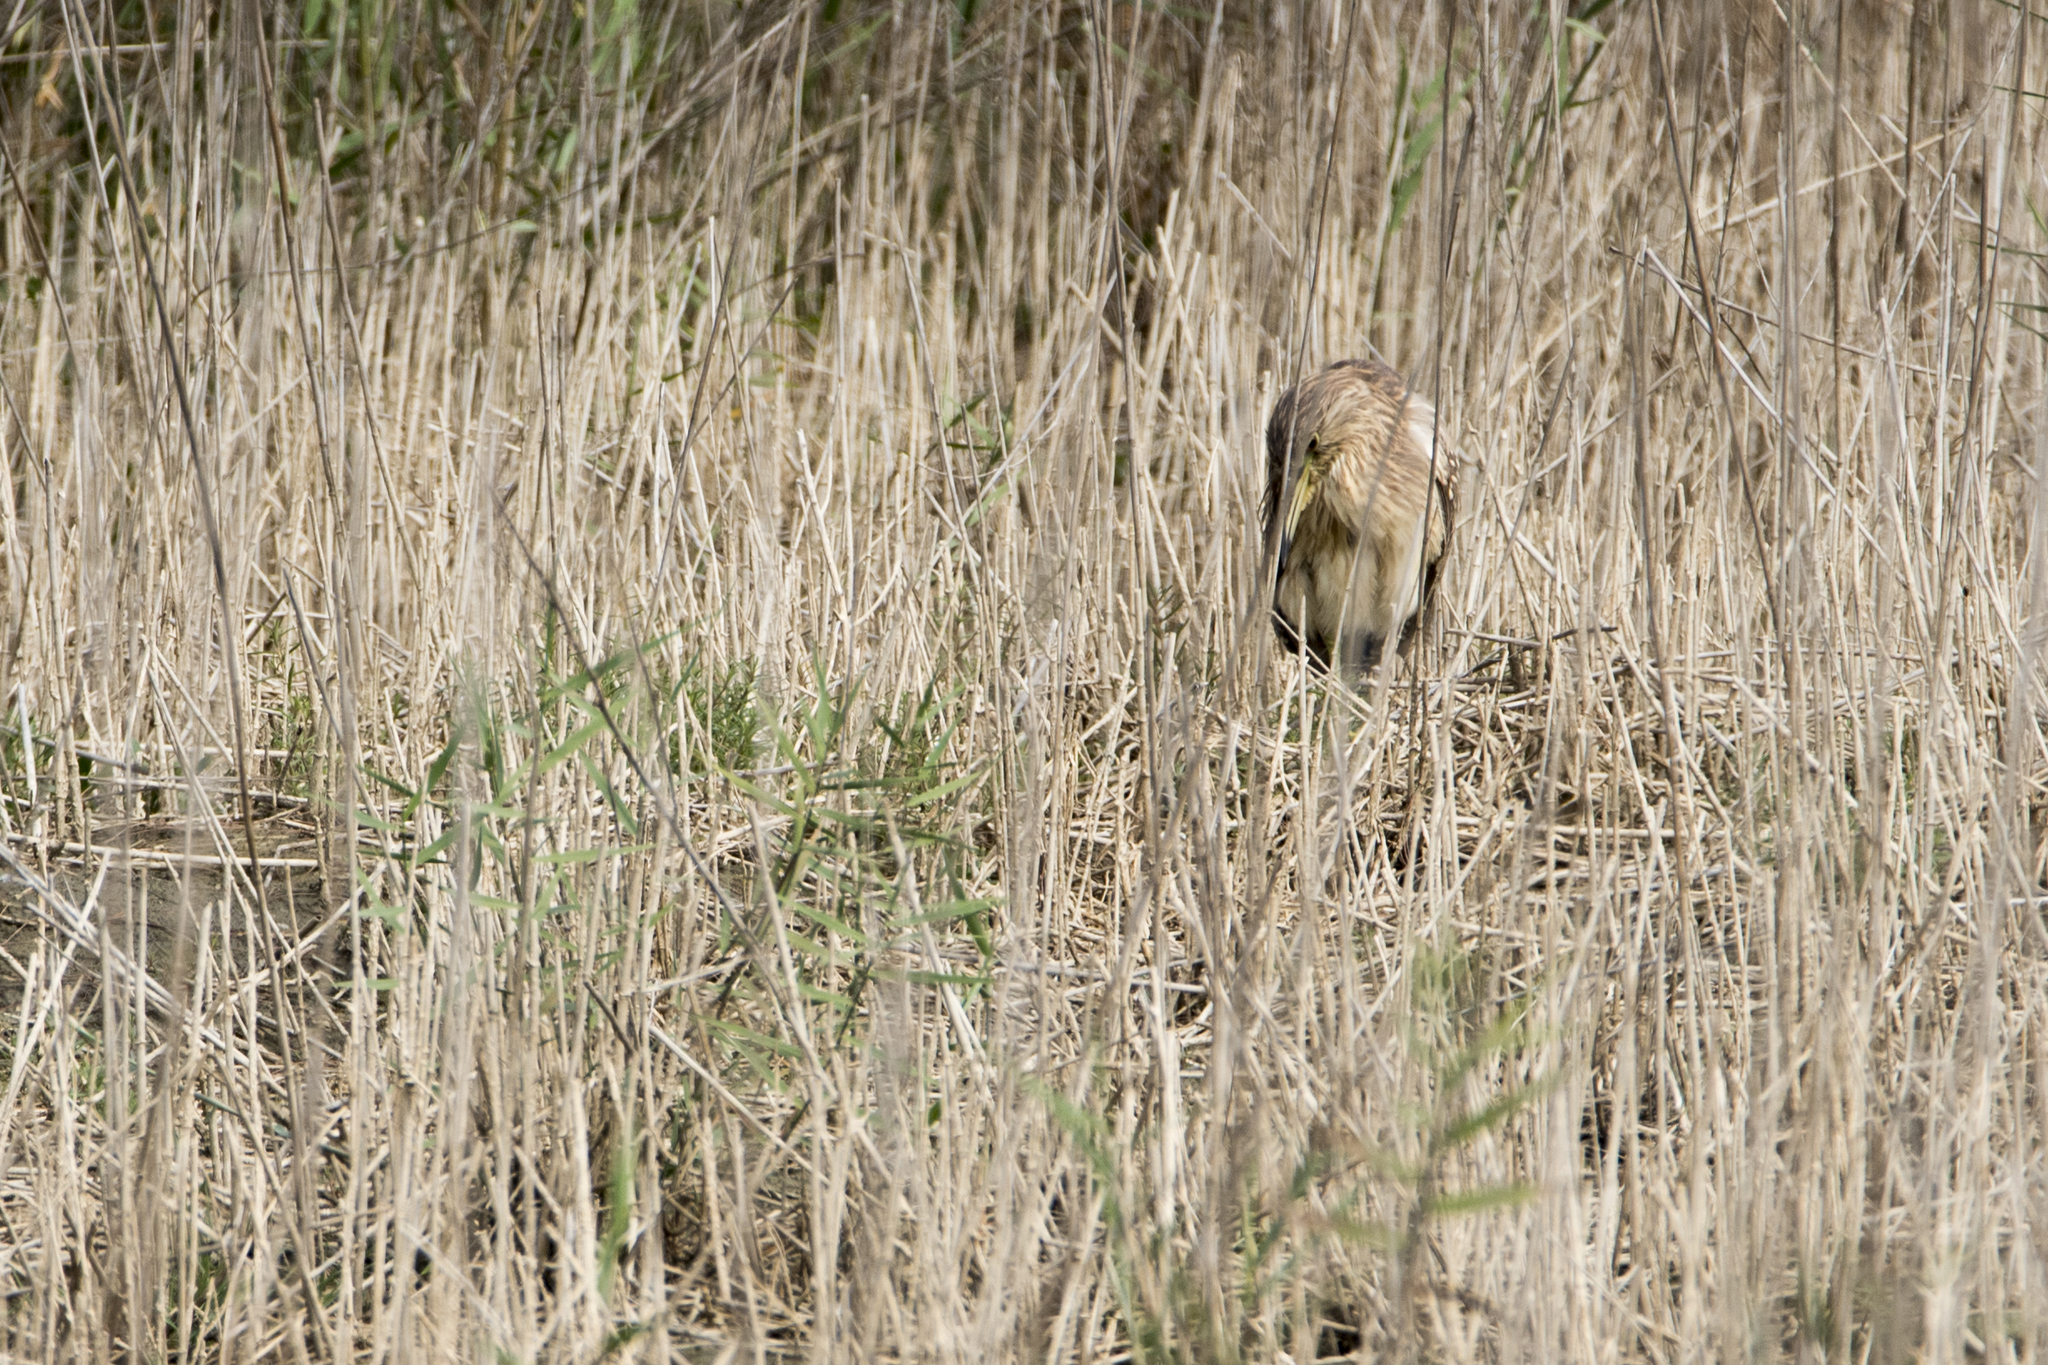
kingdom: Animalia
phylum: Chordata
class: Aves
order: Pelecaniformes
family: Ardeidae
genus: Nycticorax
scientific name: Nycticorax nycticorax
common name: Black-crowned night heron
